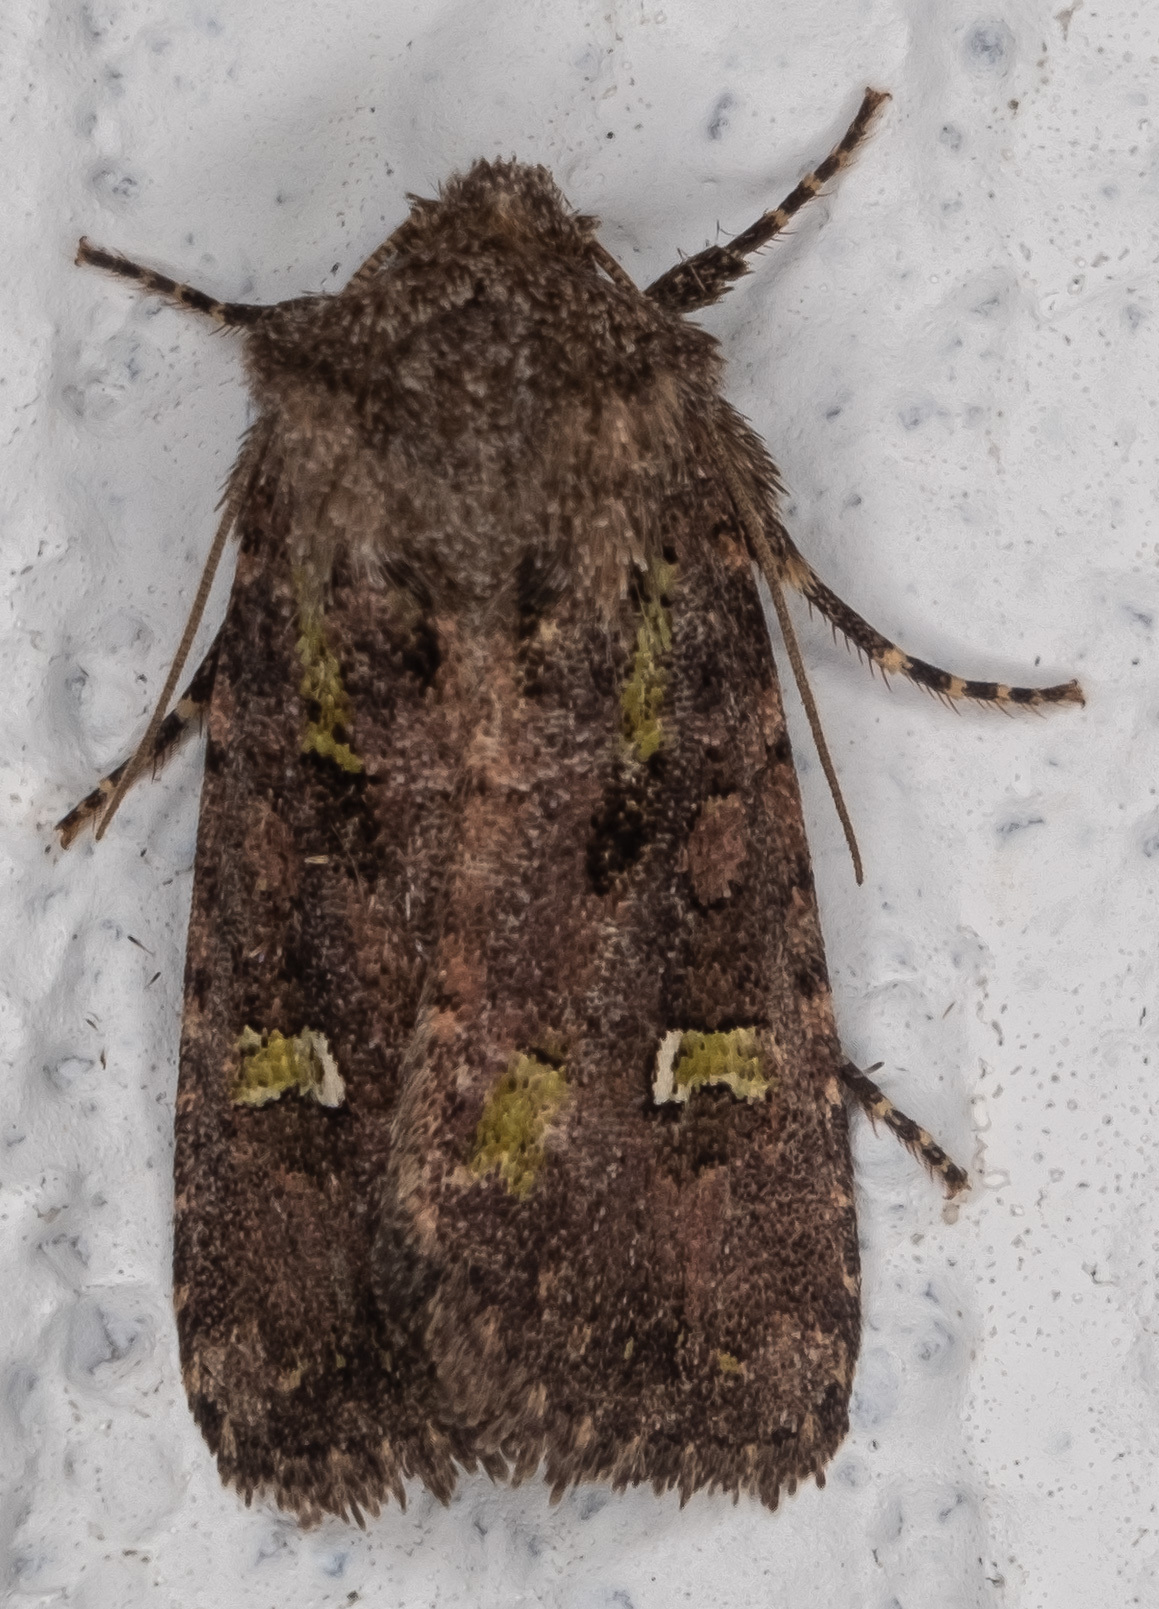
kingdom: Animalia
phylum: Arthropoda
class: Insecta
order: Lepidoptera
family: Noctuidae
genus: Lacinipolia
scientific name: Lacinipolia renigera
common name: Kidney-spotted minor
